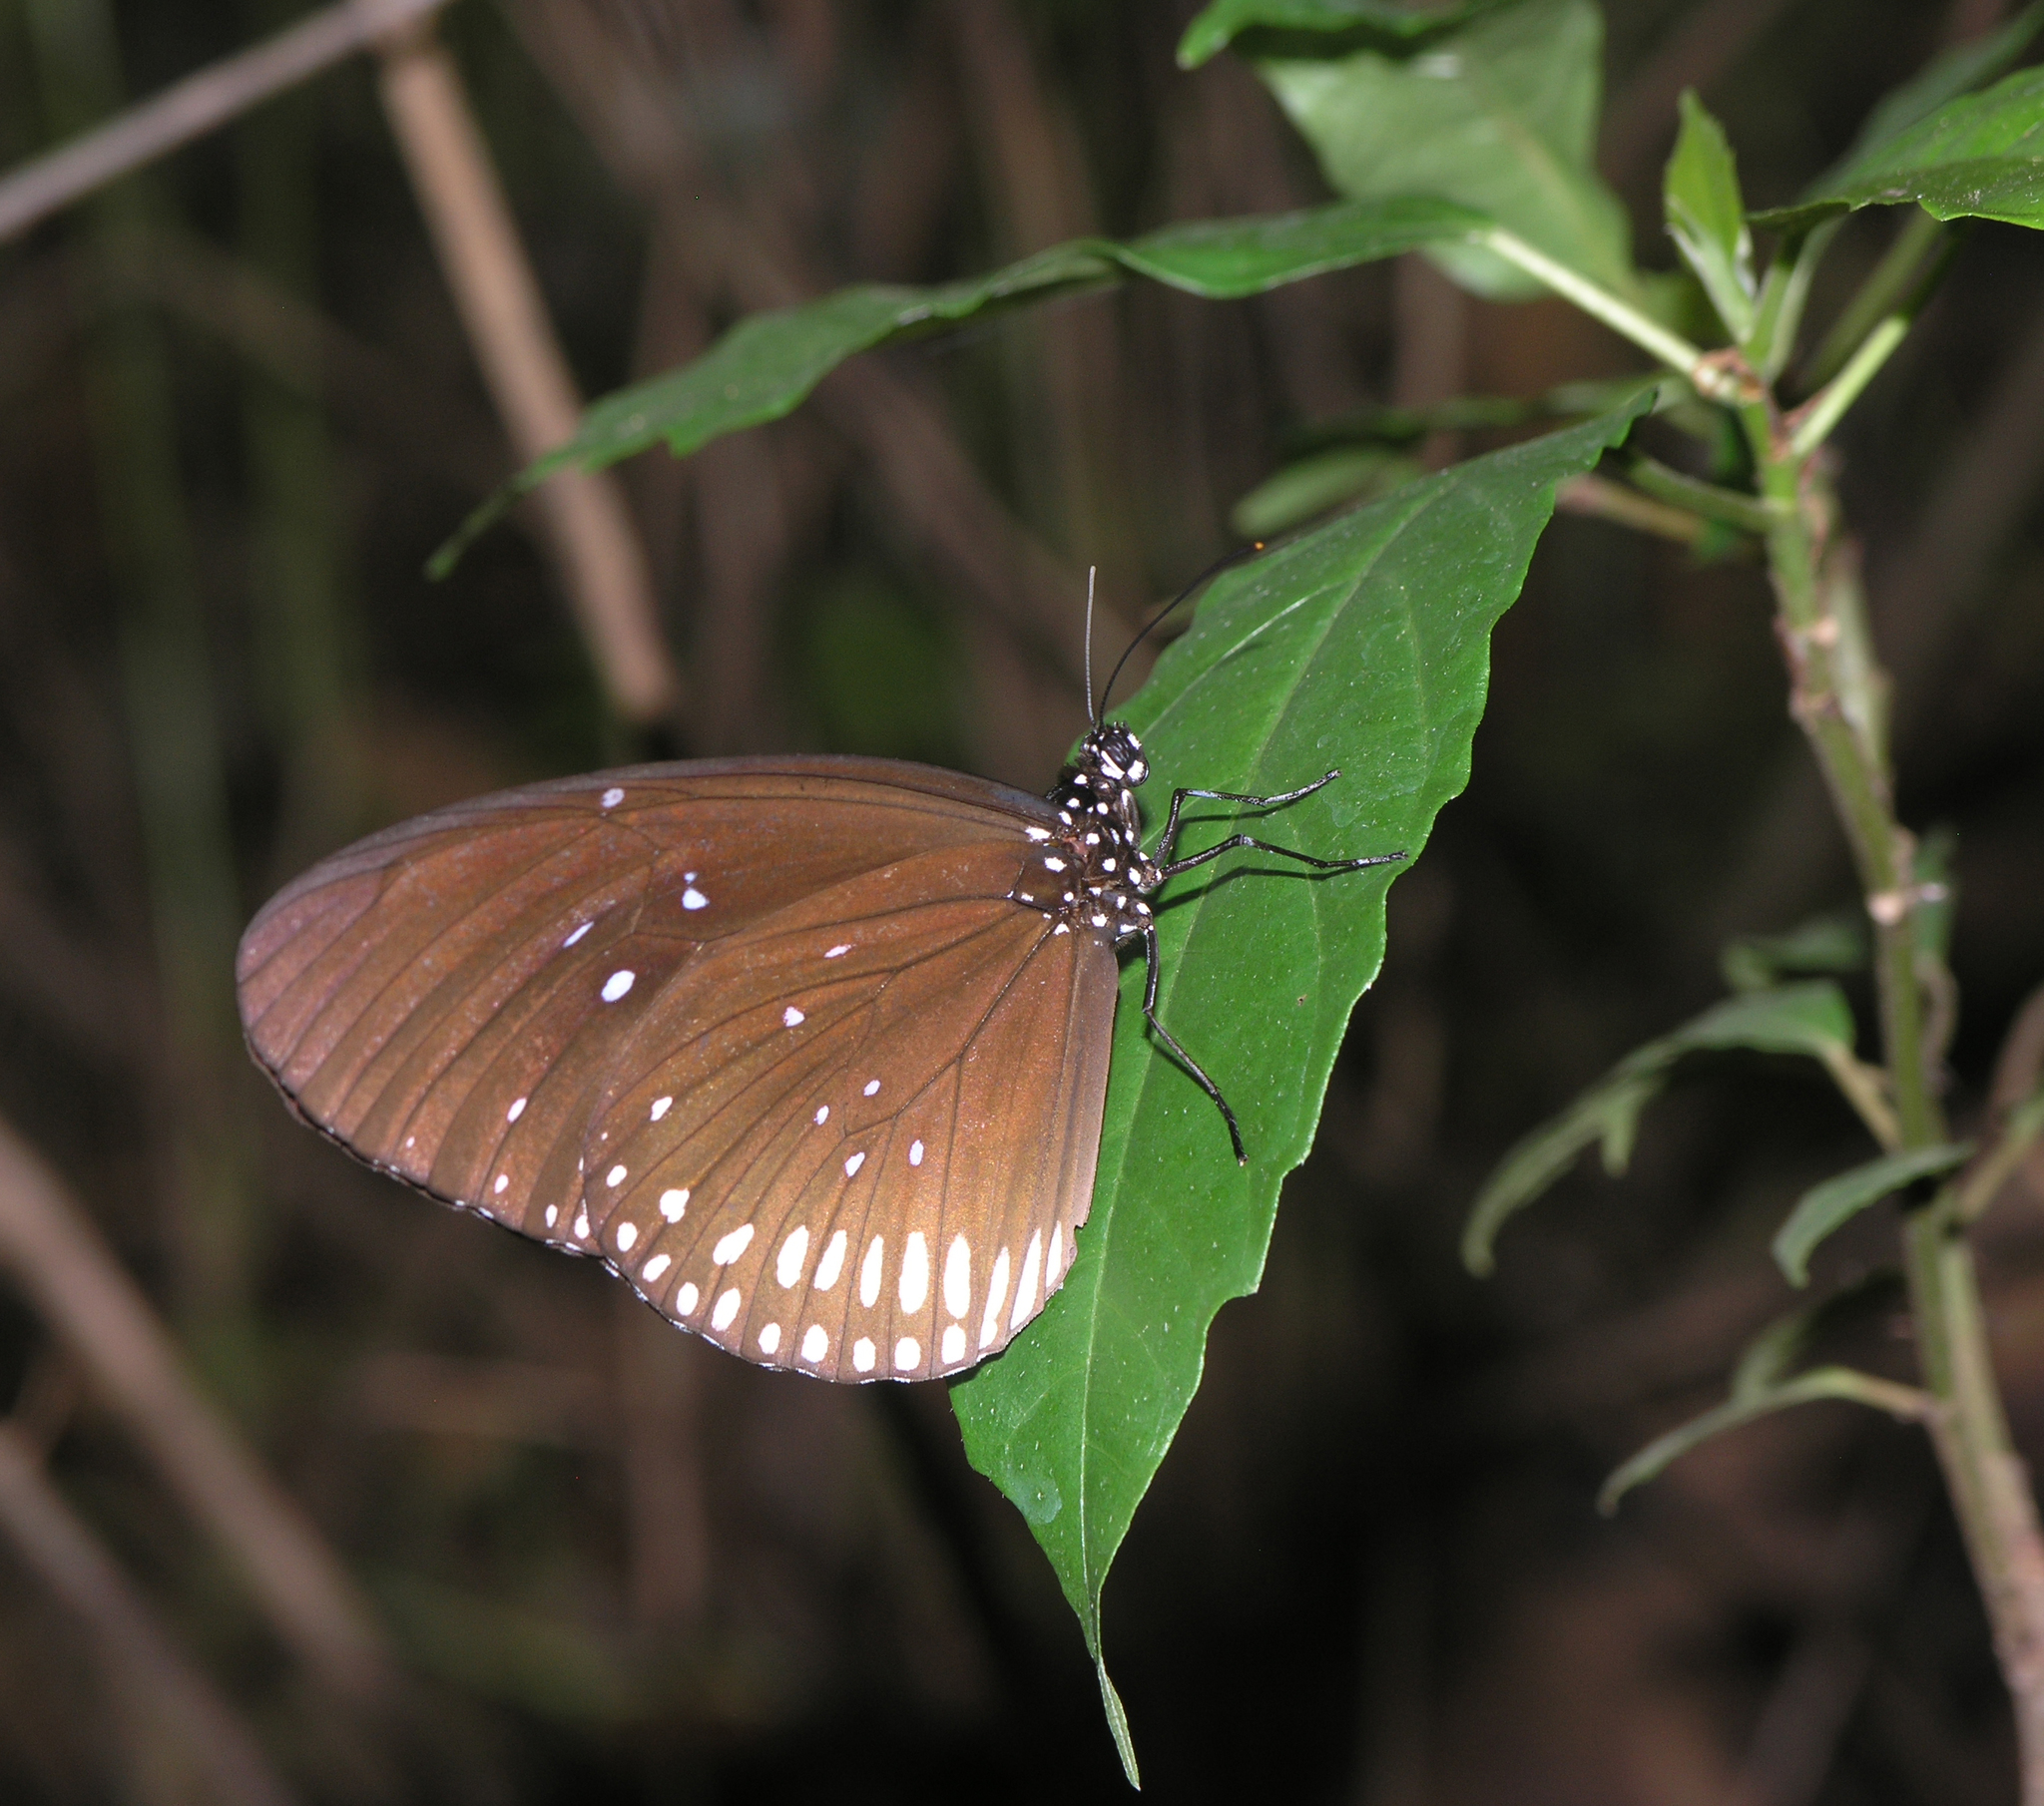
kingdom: Animalia
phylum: Arthropoda
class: Insecta
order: Lepidoptera
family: Nymphalidae
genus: Euploea
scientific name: Euploea algea
